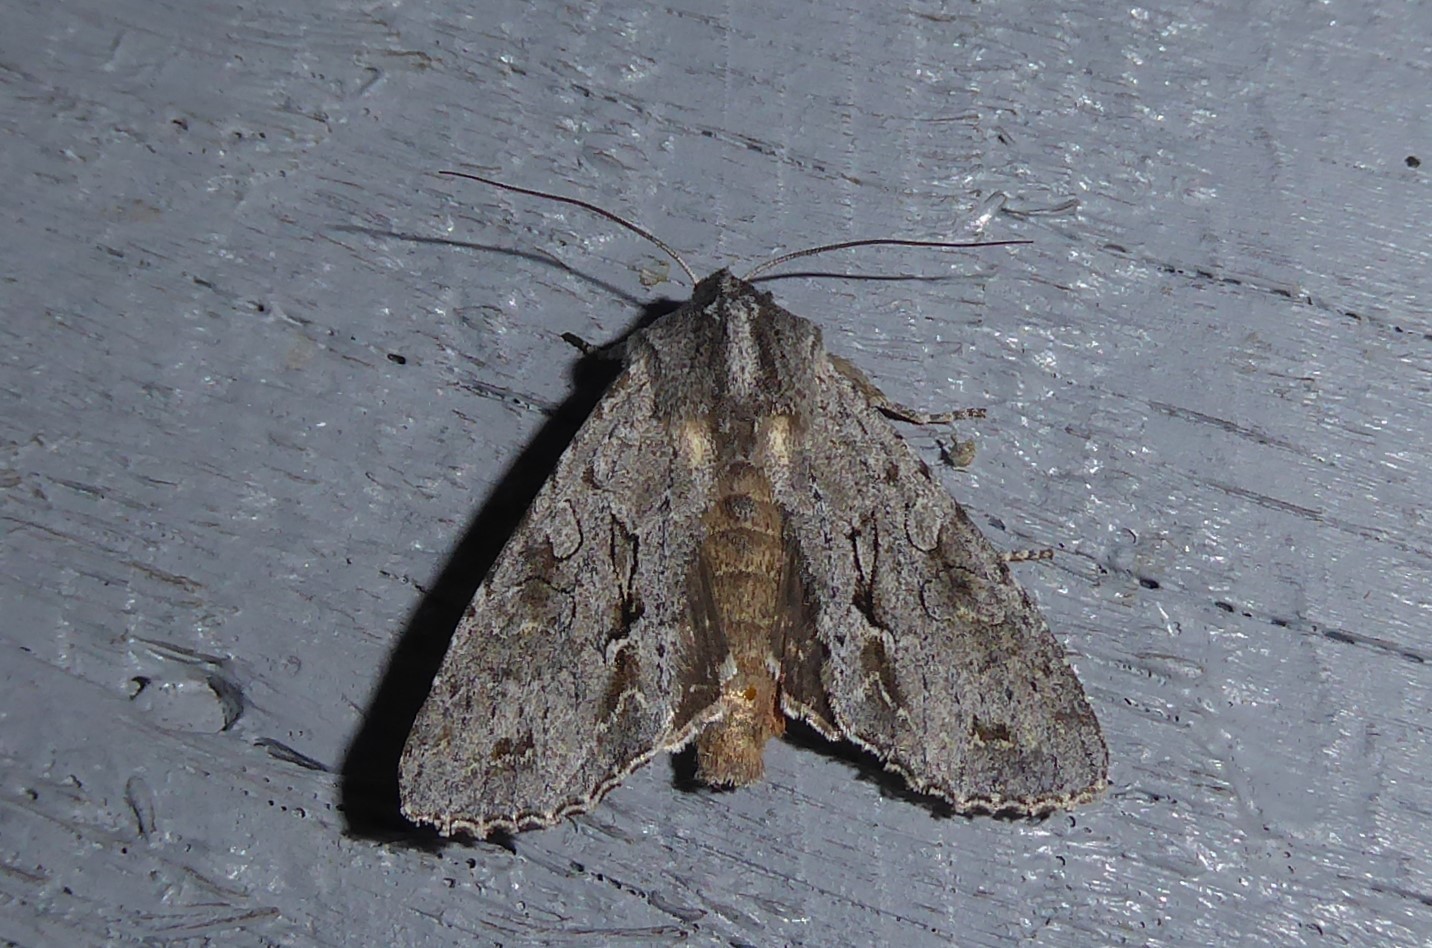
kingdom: Animalia
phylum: Arthropoda
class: Insecta
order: Lepidoptera
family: Noctuidae
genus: Ichneutica
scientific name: Ichneutica
